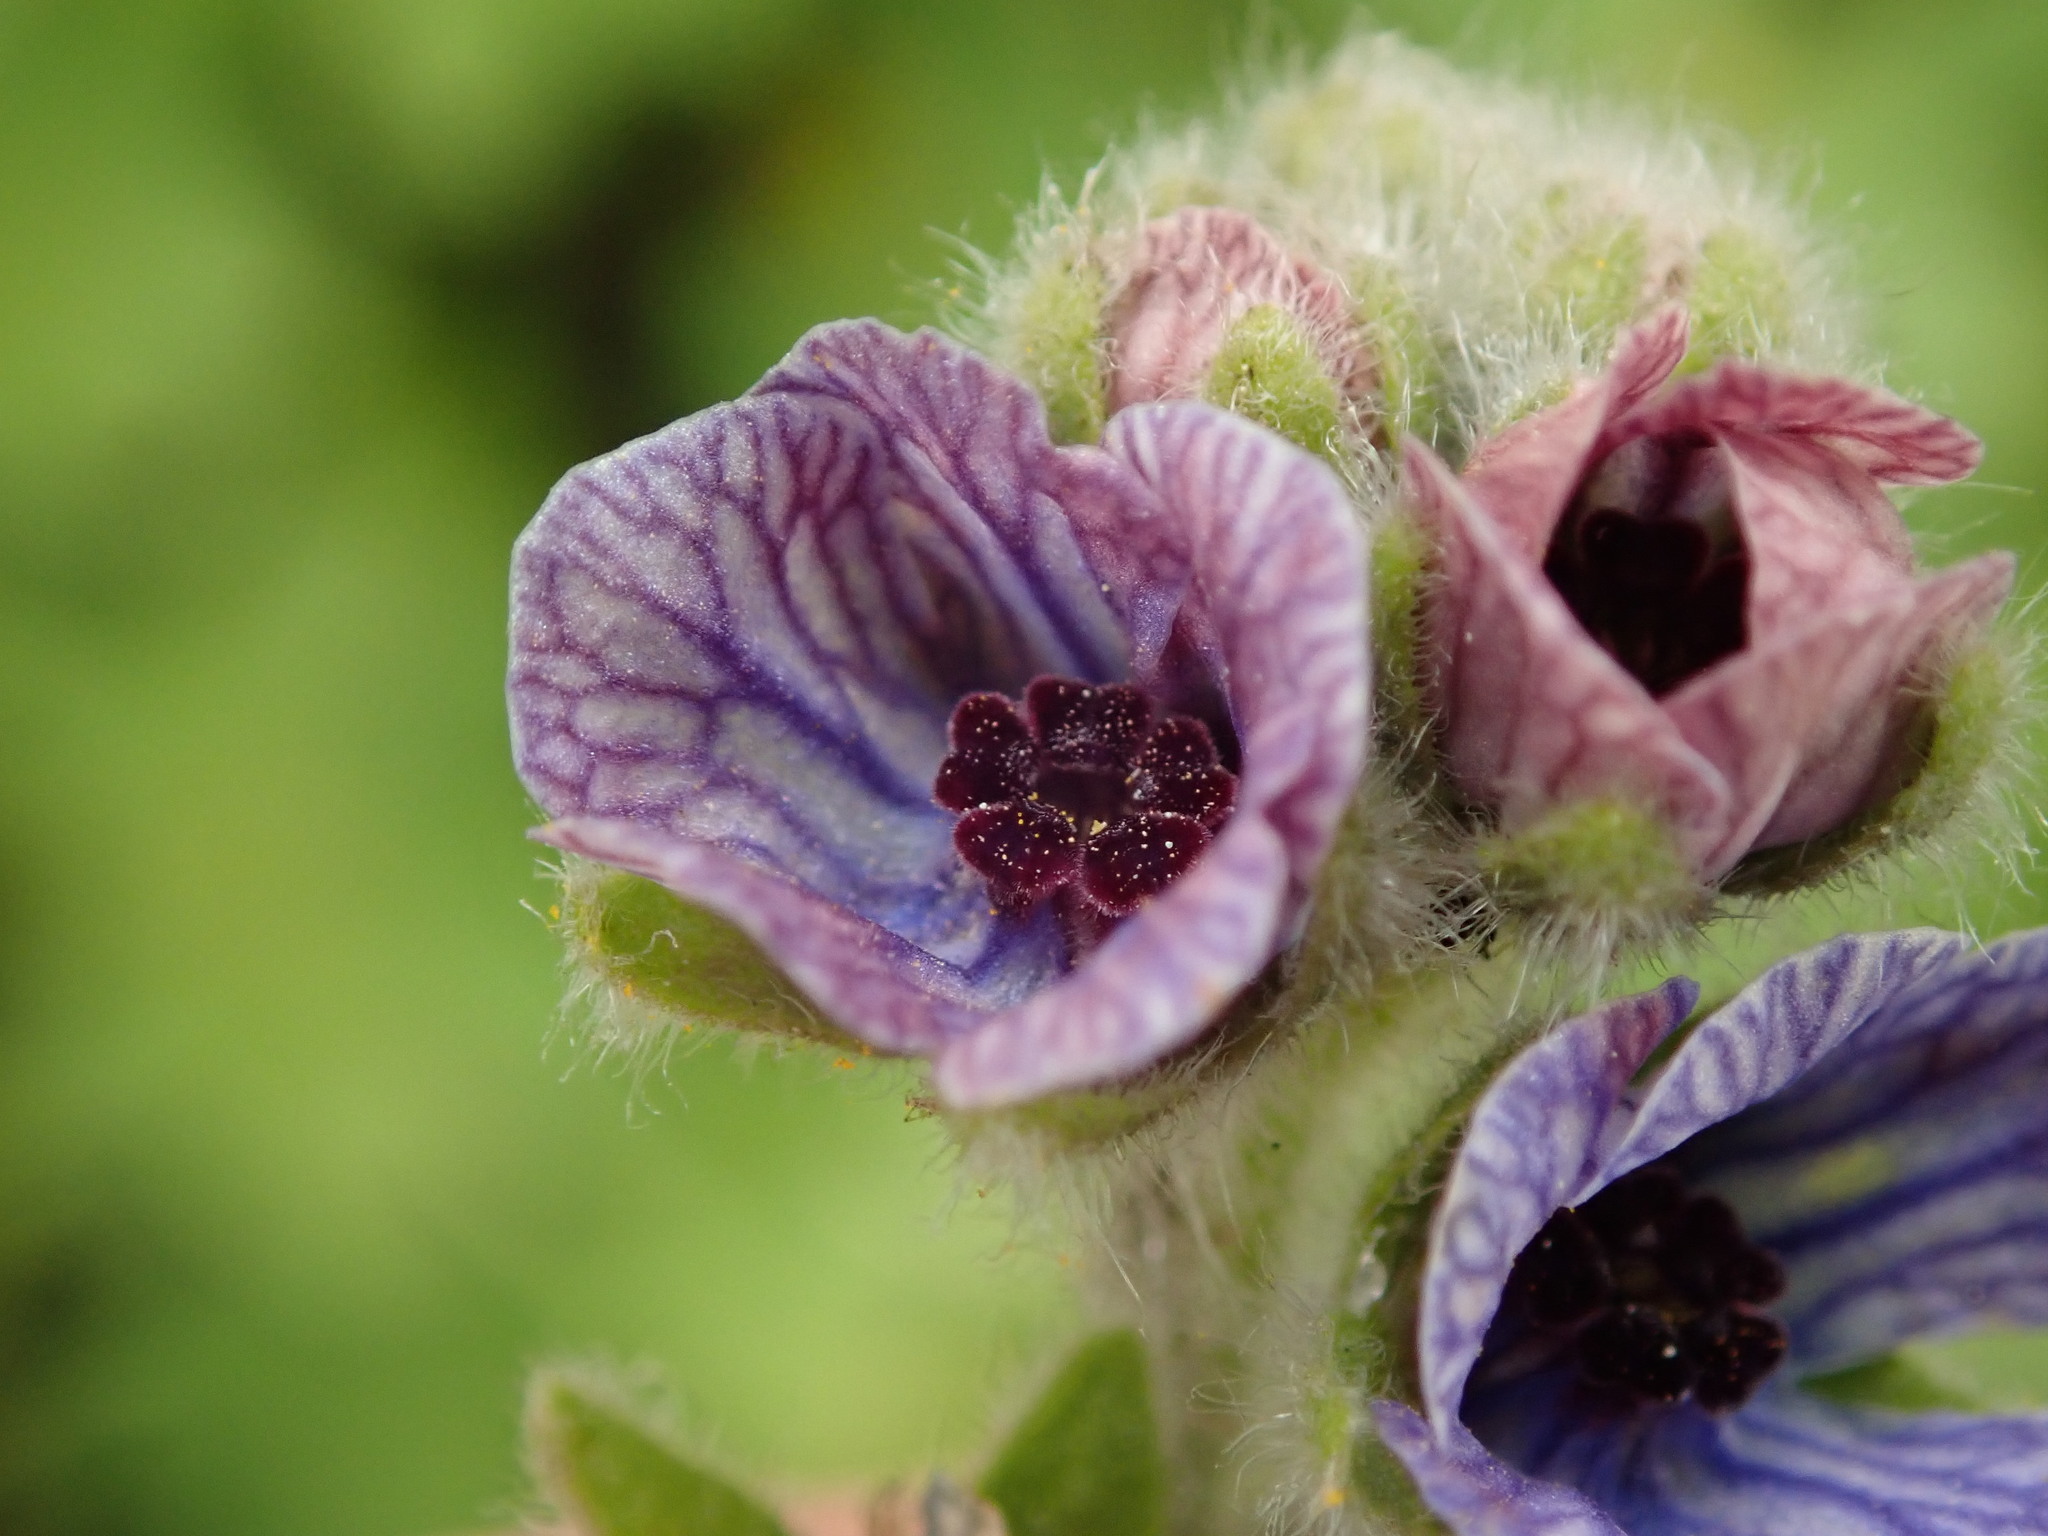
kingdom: Plantae
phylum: Tracheophyta
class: Magnoliopsida
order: Boraginales
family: Boraginaceae
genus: Cynoglossum
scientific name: Cynoglossum creticum
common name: Blue hound's tongue
